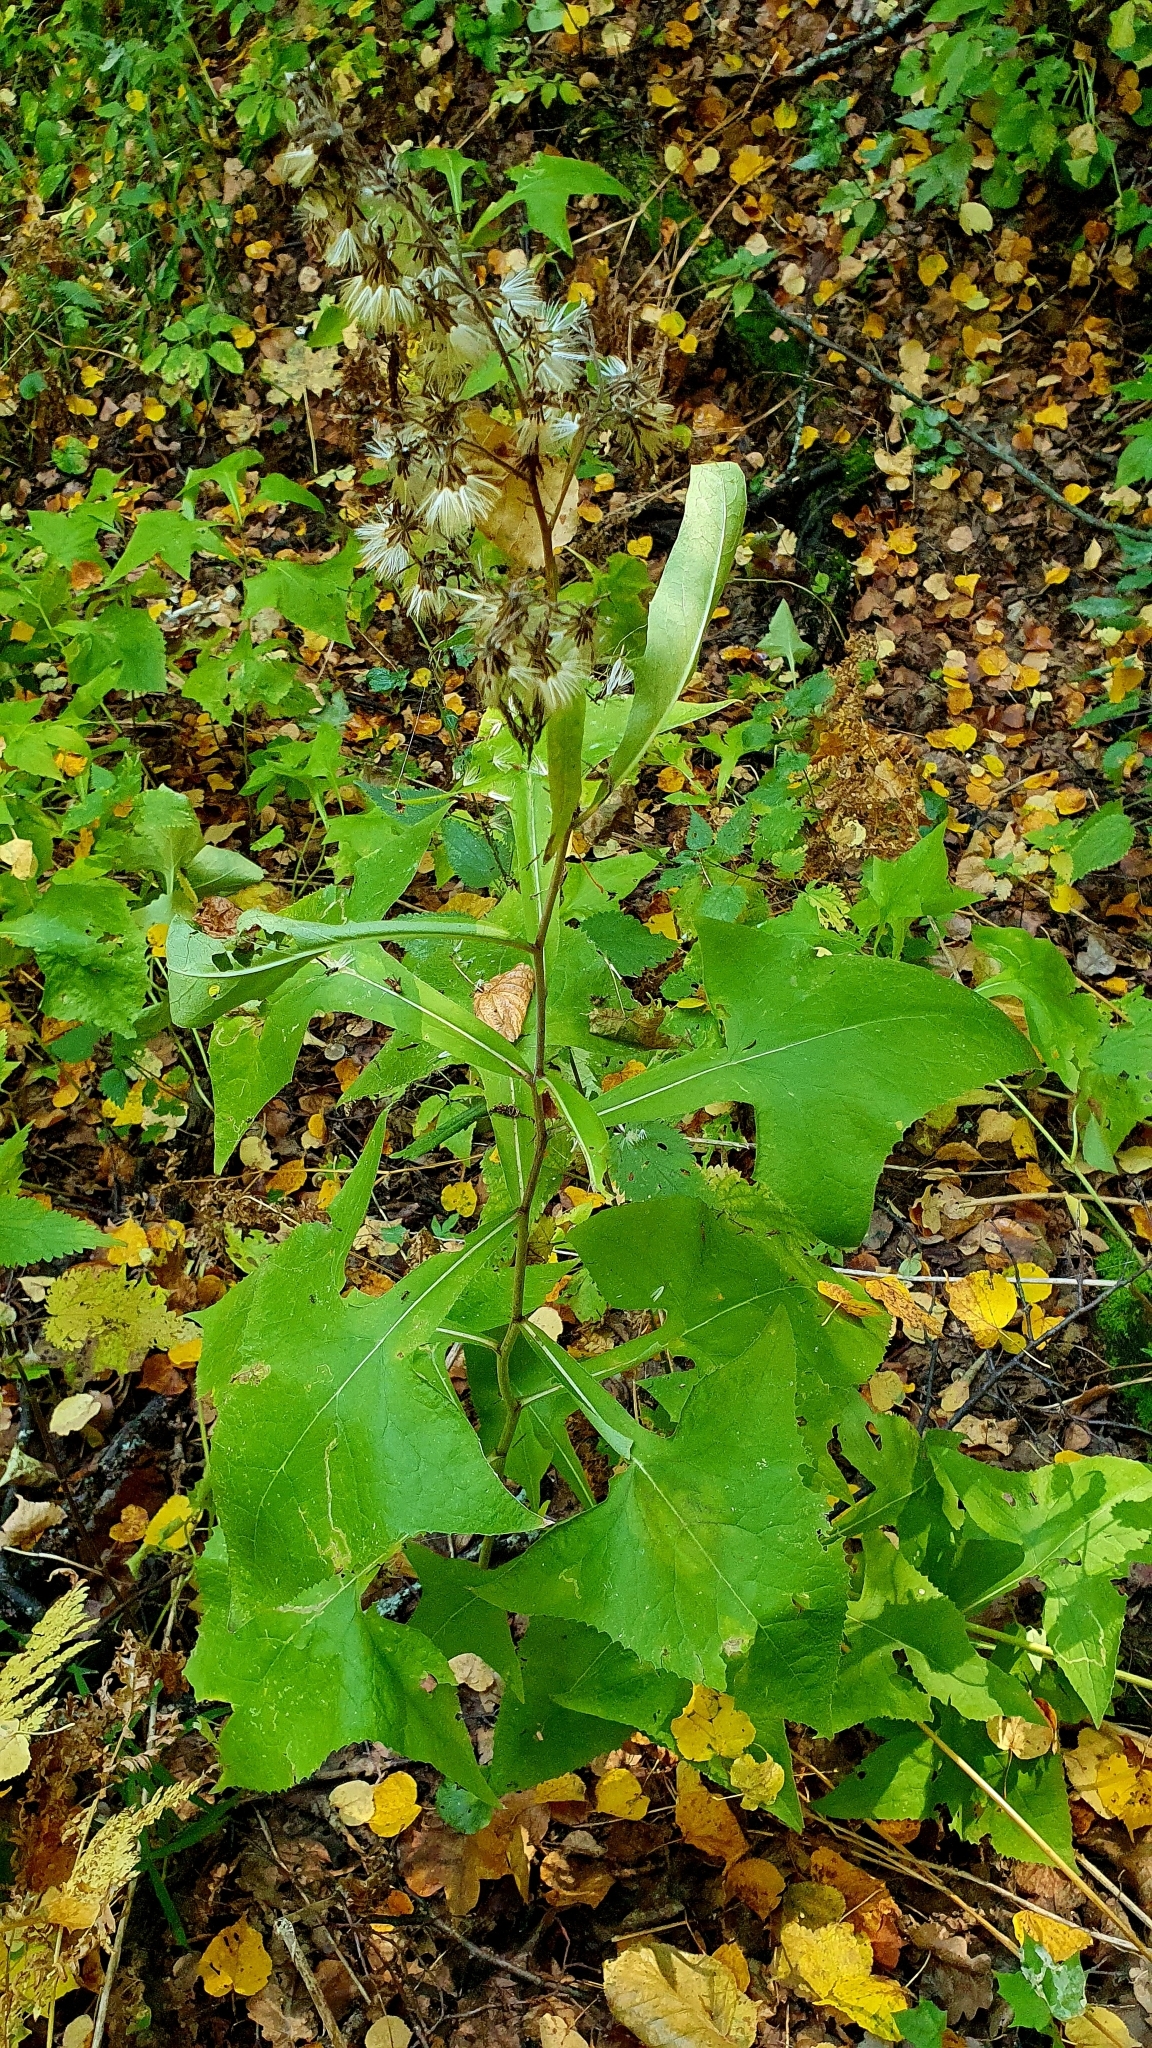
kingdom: Plantae
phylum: Tracheophyta
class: Magnoliopsida
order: Asterales
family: Asteraceae
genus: Parasenecio
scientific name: Parasenecio hastatus
